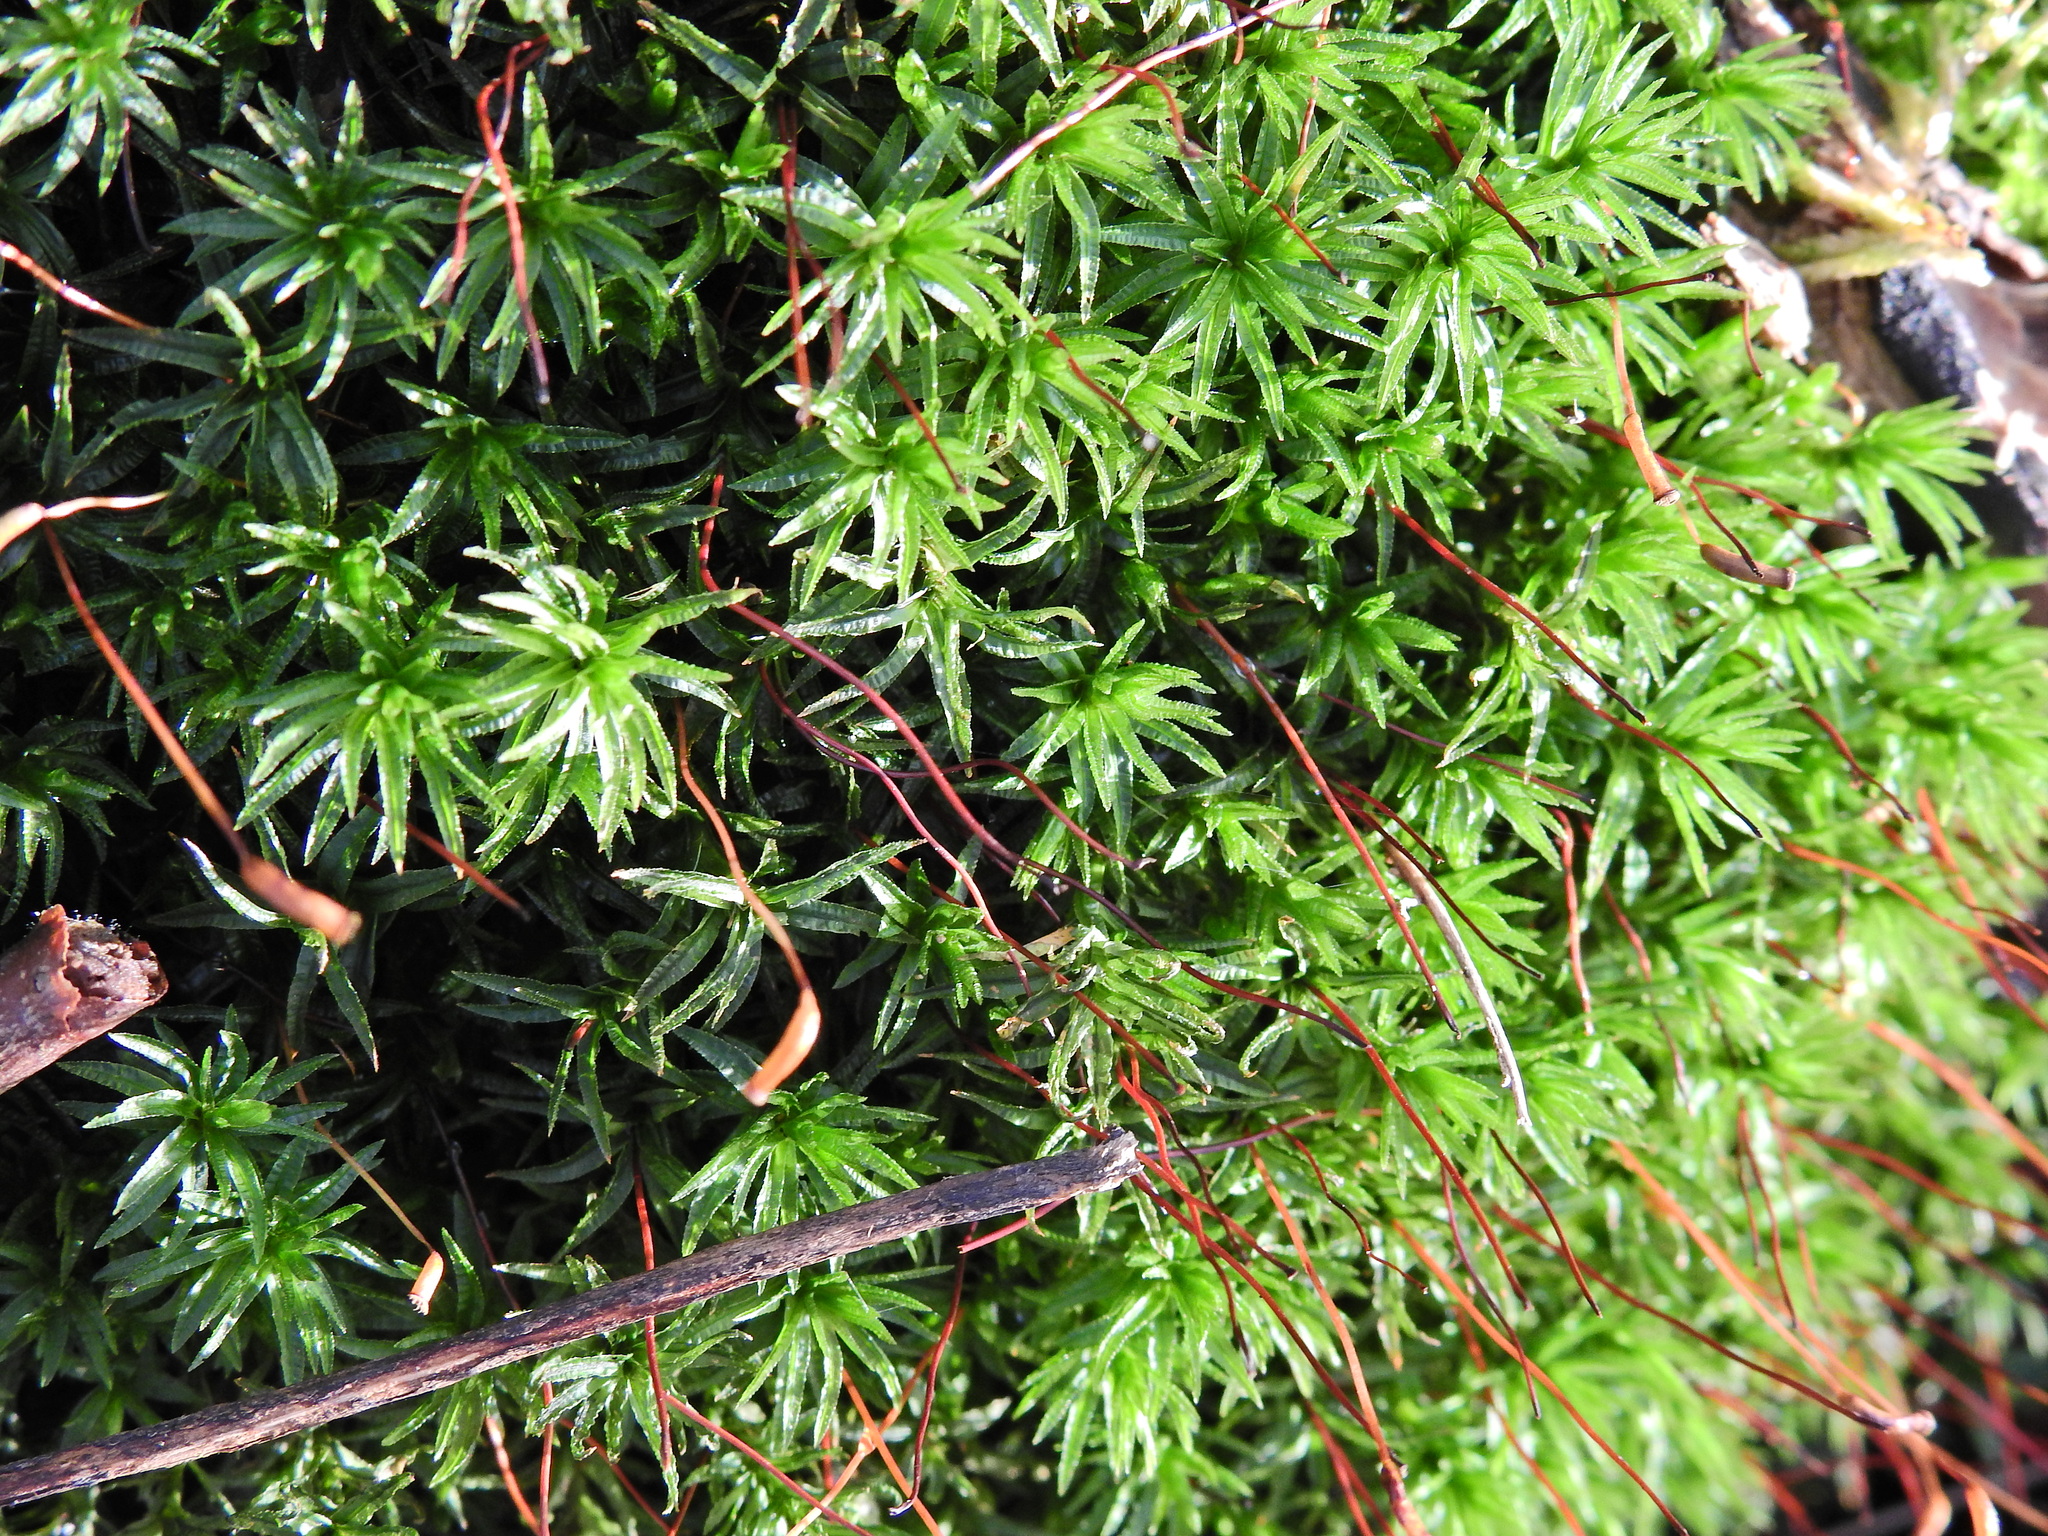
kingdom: Plantae
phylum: Bryophyta
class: Polytrichopsida
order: Polytrichales
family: Polytrichaceae
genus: Atrichum
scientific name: Atrichum undulatum
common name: Common smoothcap
